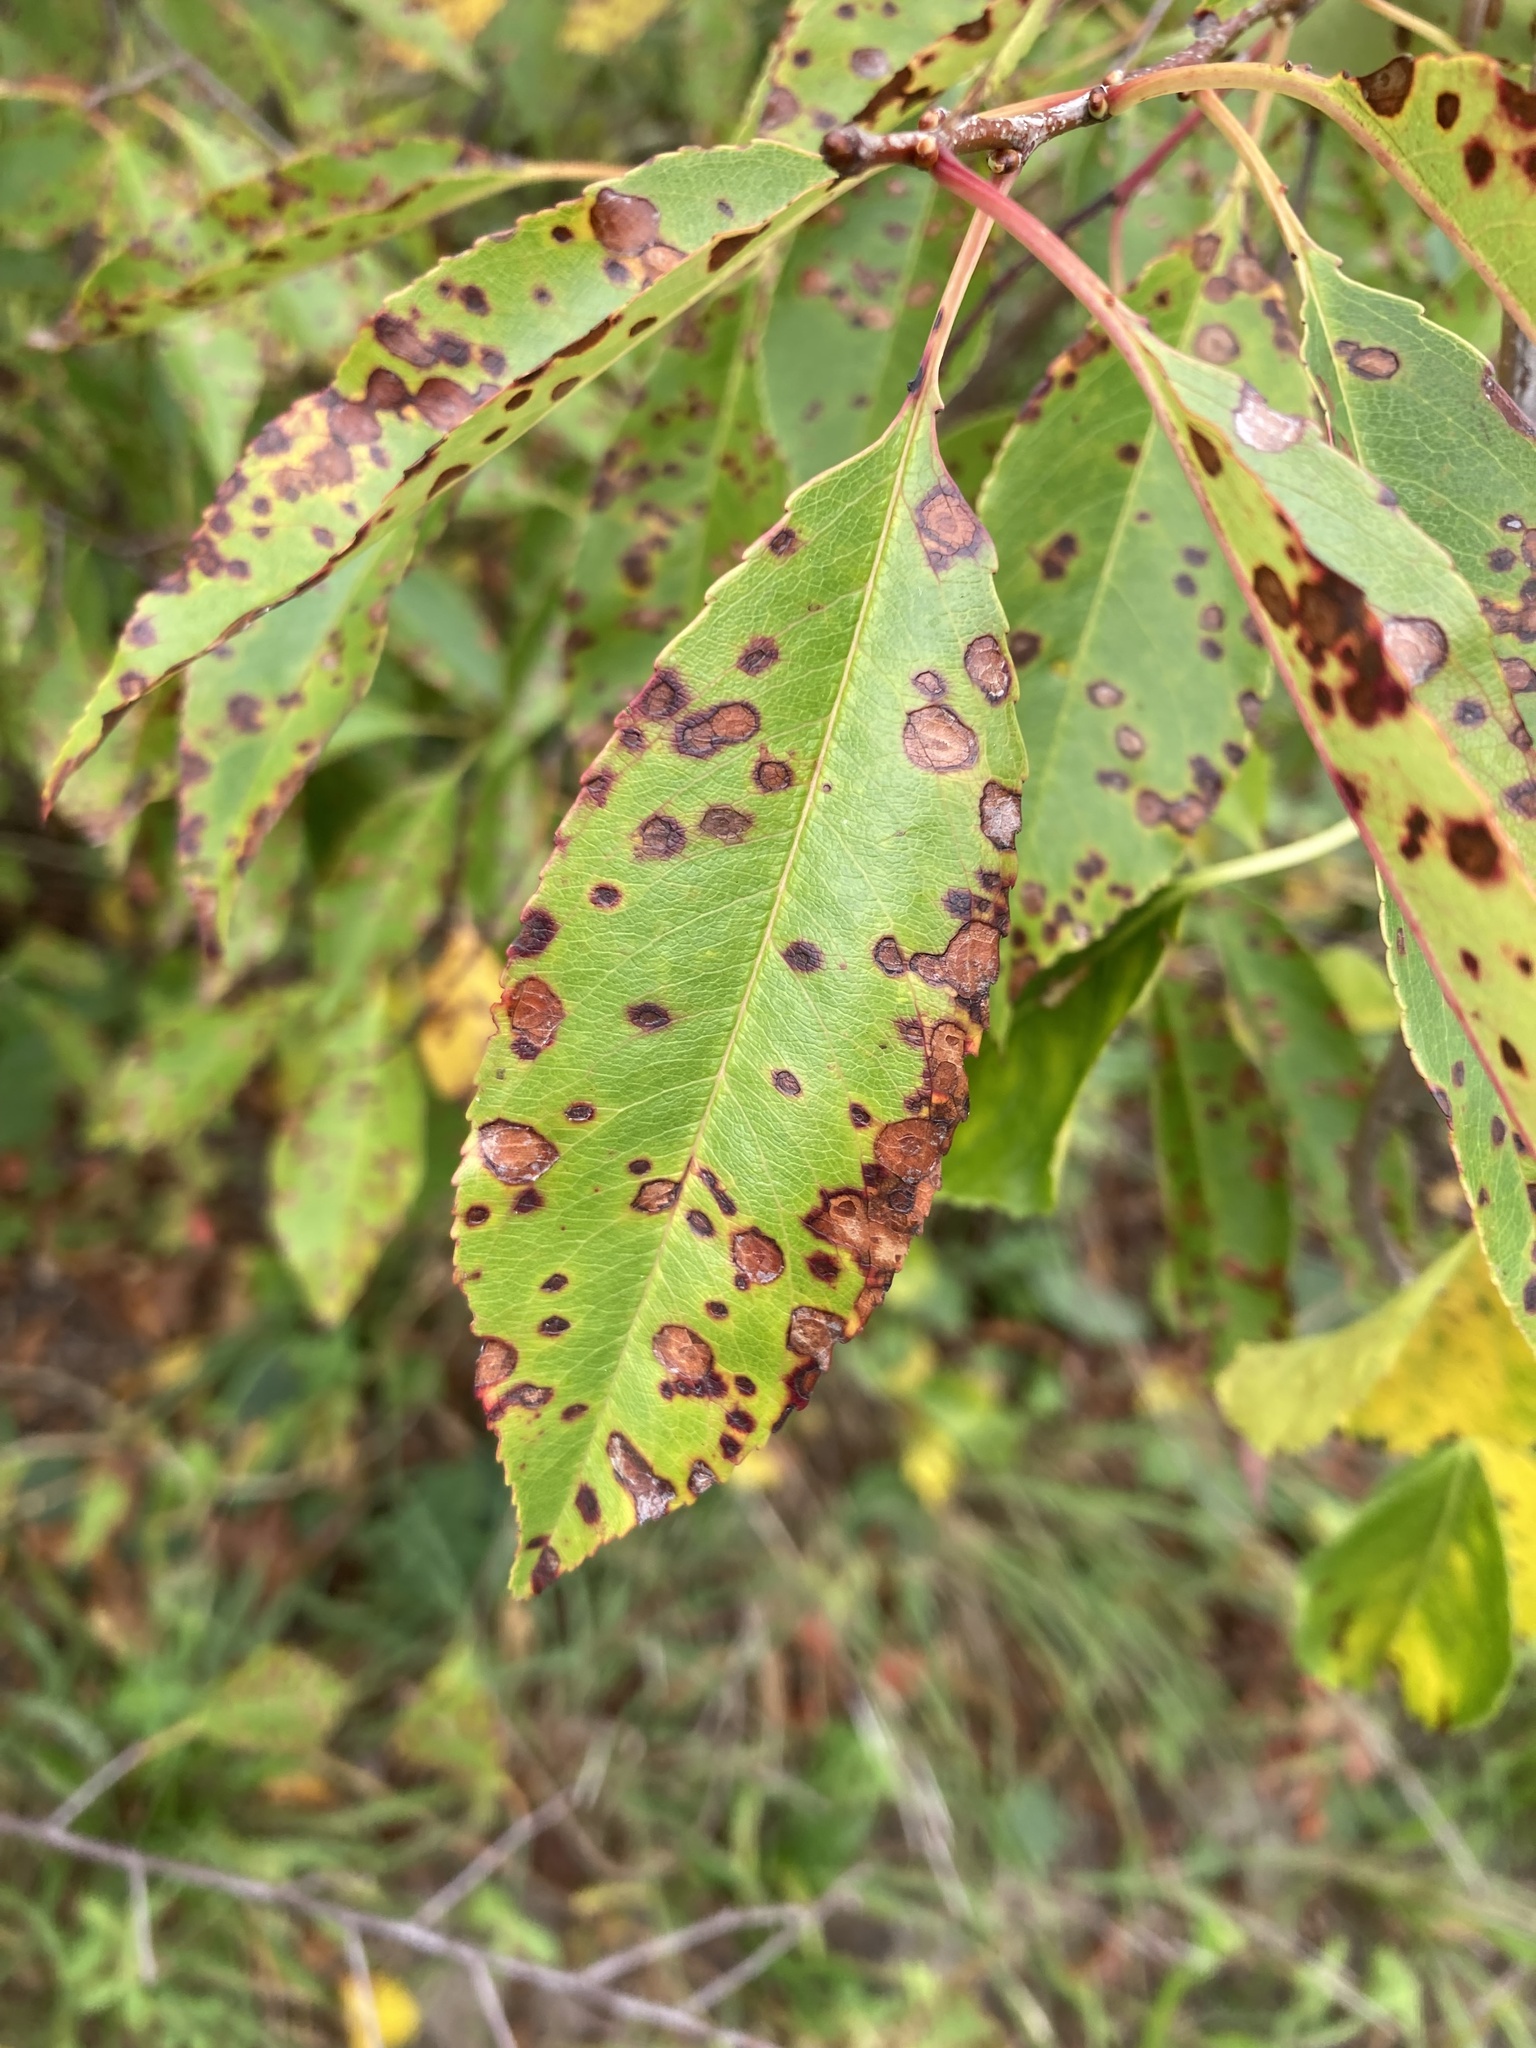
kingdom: Plantae
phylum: Tracheophyta
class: Magnoliopsida
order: Rosales
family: Rosaceae
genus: Prunus
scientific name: Prunus serotina
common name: Black cherry
